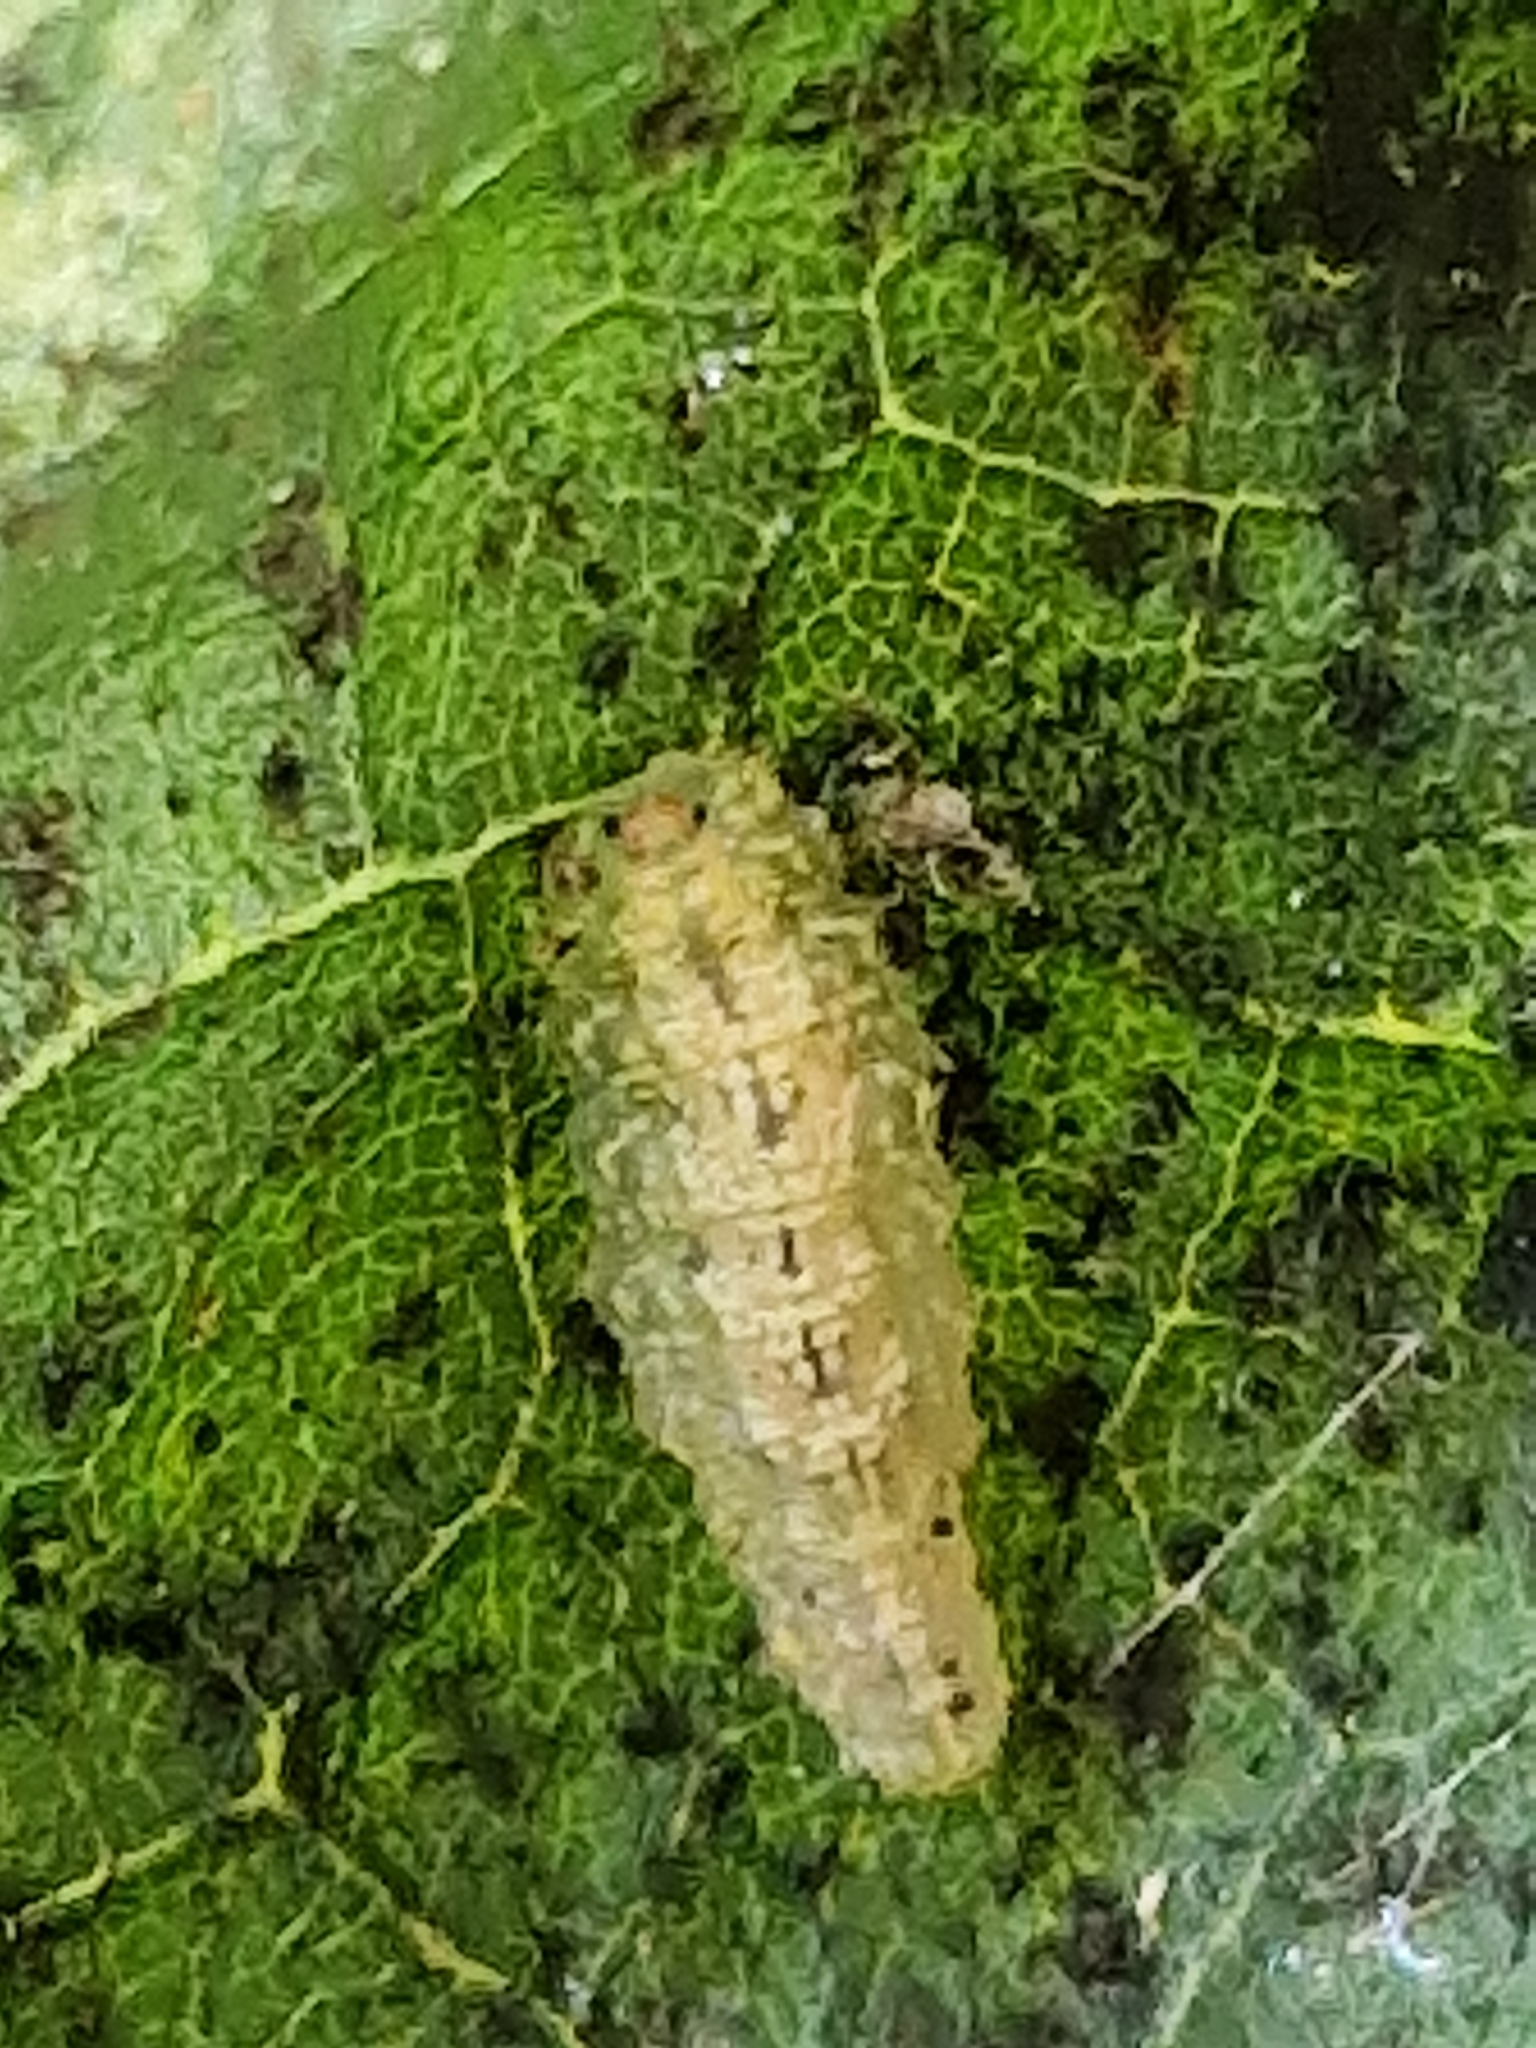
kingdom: Animalia
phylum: Arthropoda
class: Insecta
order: Diptera
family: Syrphidae
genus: Syrphus
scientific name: Syrphus
